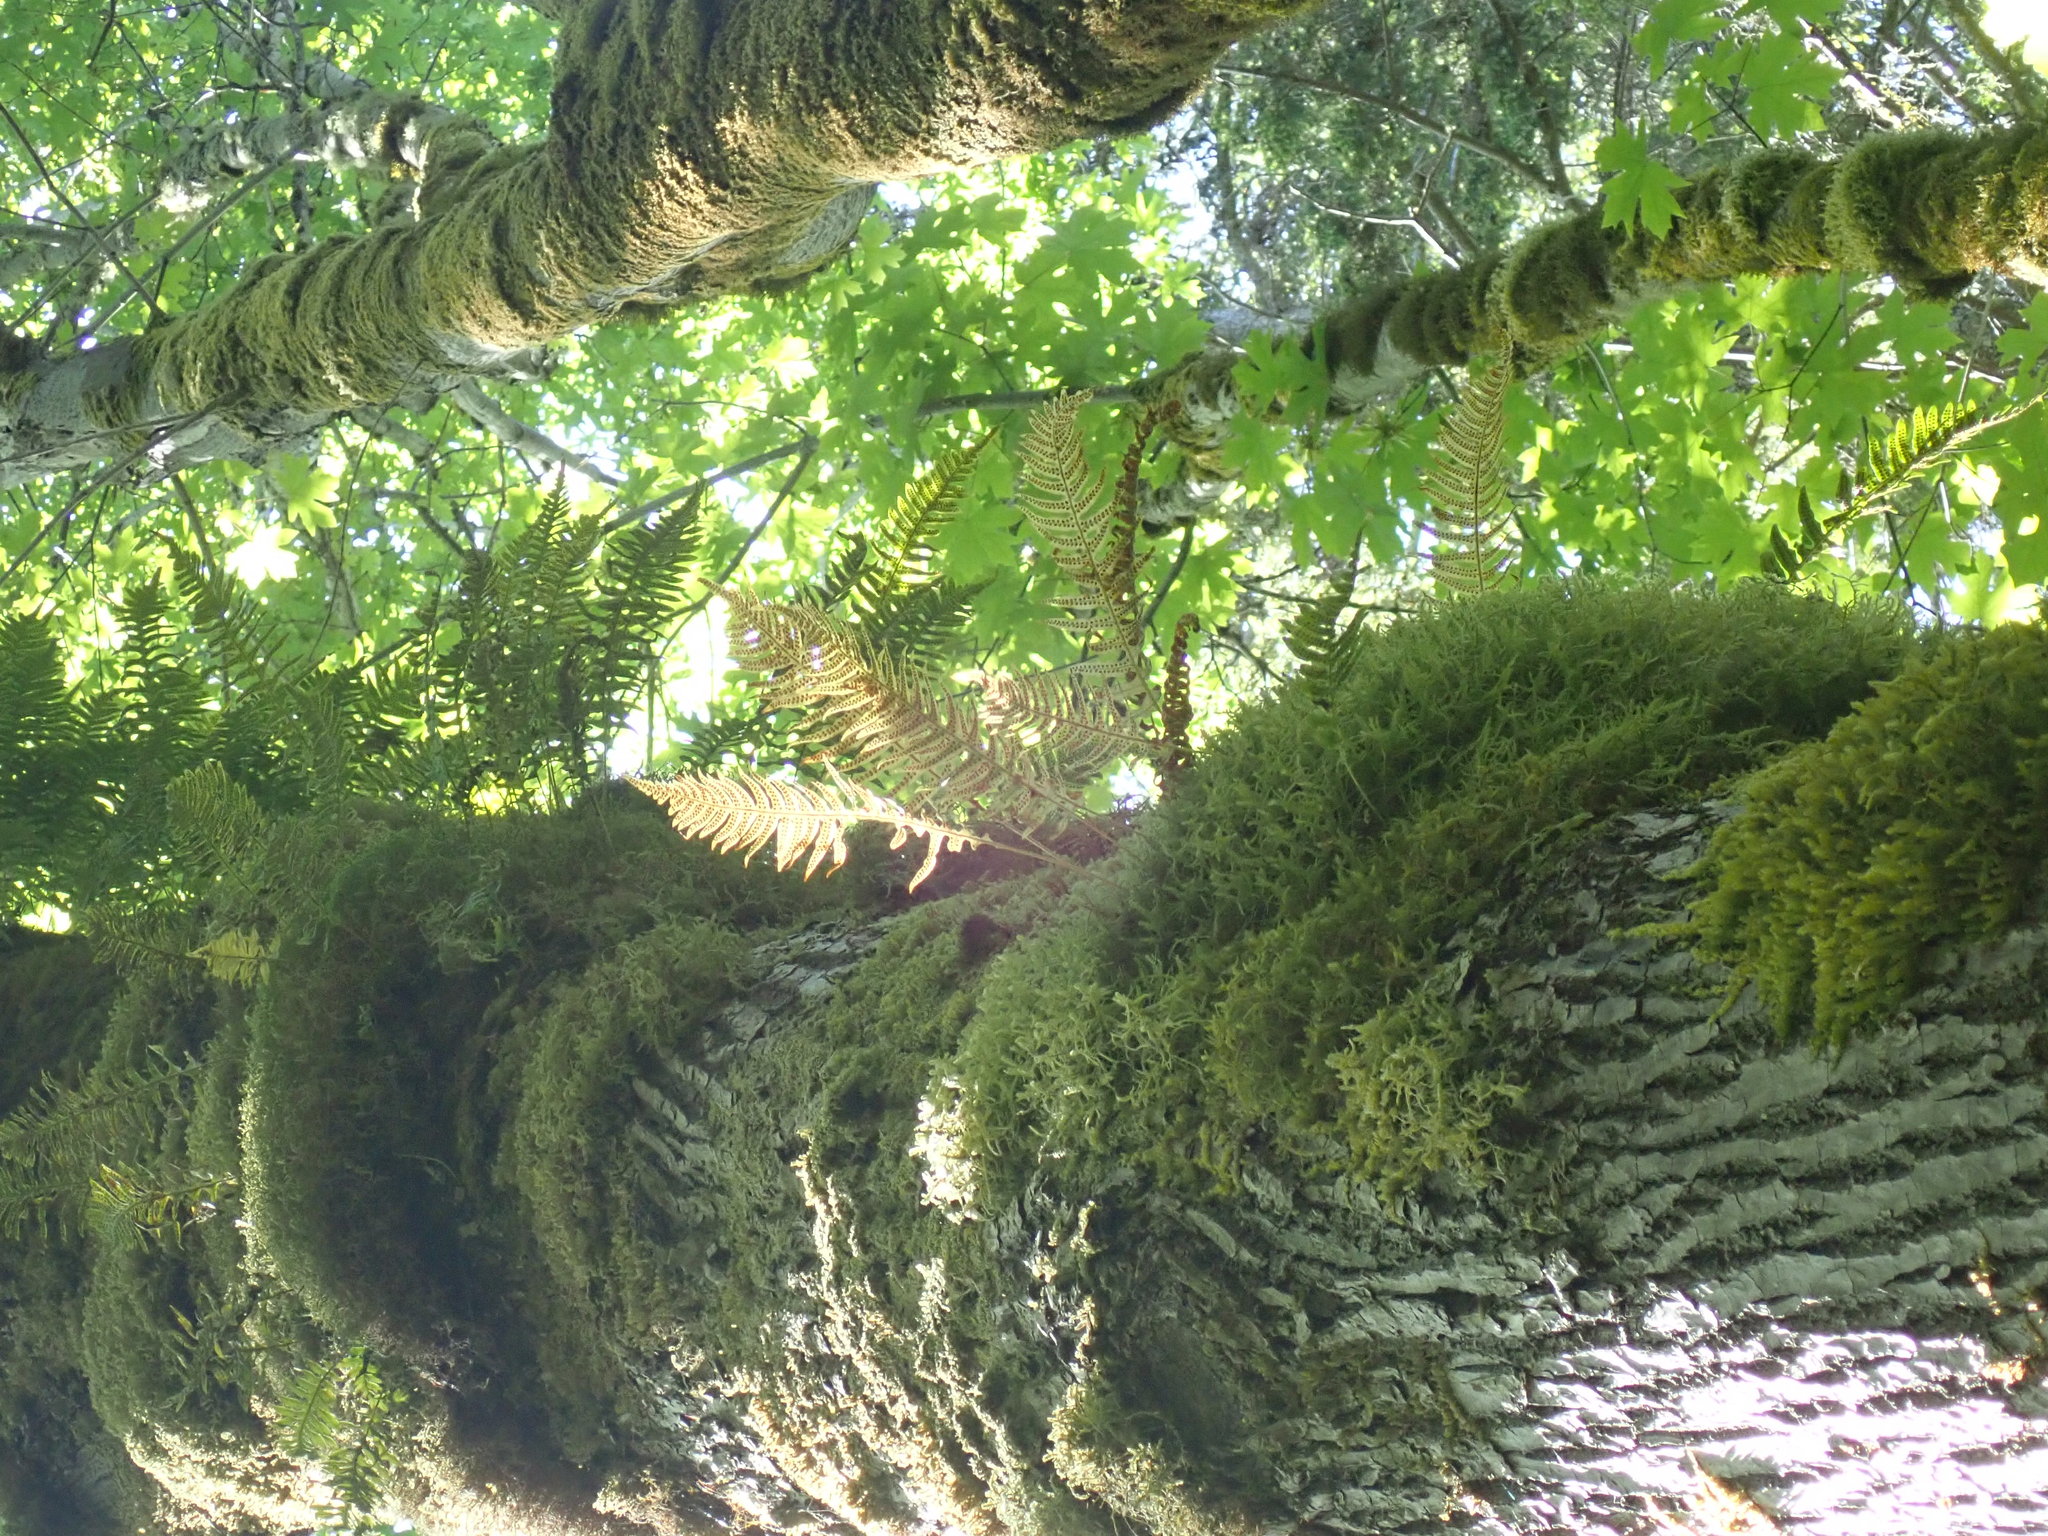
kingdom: Plantae
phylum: Tracheophyta
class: Polypodiopsida
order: Polypodiales
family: Polypodiaceae
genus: Polypodium
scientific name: Polypodium glycyrrhiza
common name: Licorice fern
